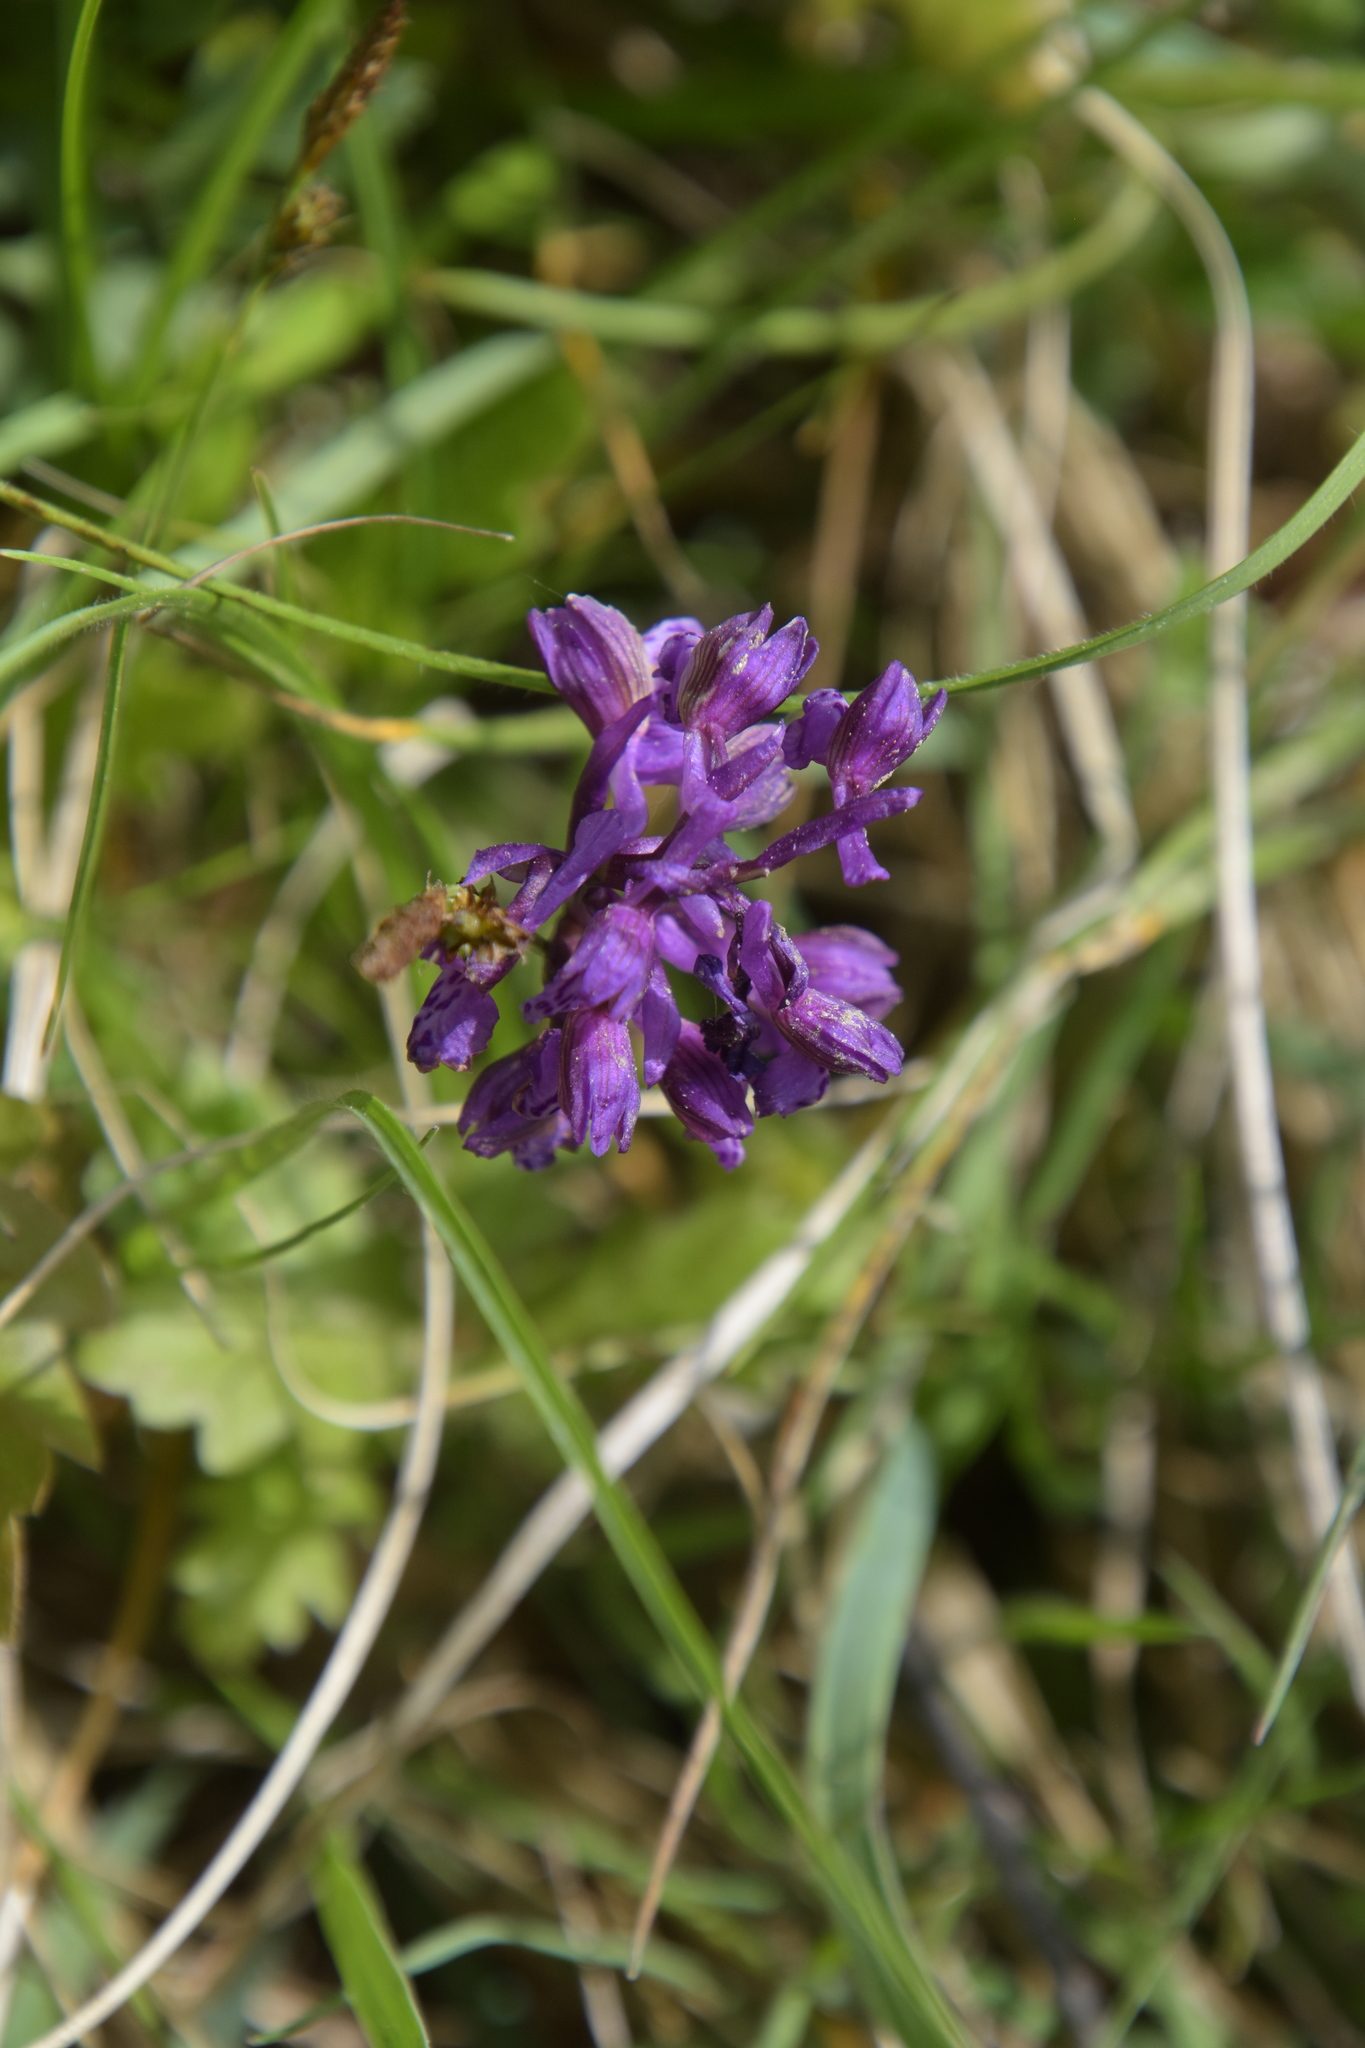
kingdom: Plantae
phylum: Tracheophyta
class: Liliopsida
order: Asparagales
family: Orchidaceae
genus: Anacamptis
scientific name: Anacamptis morio
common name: Green-winged orchid
